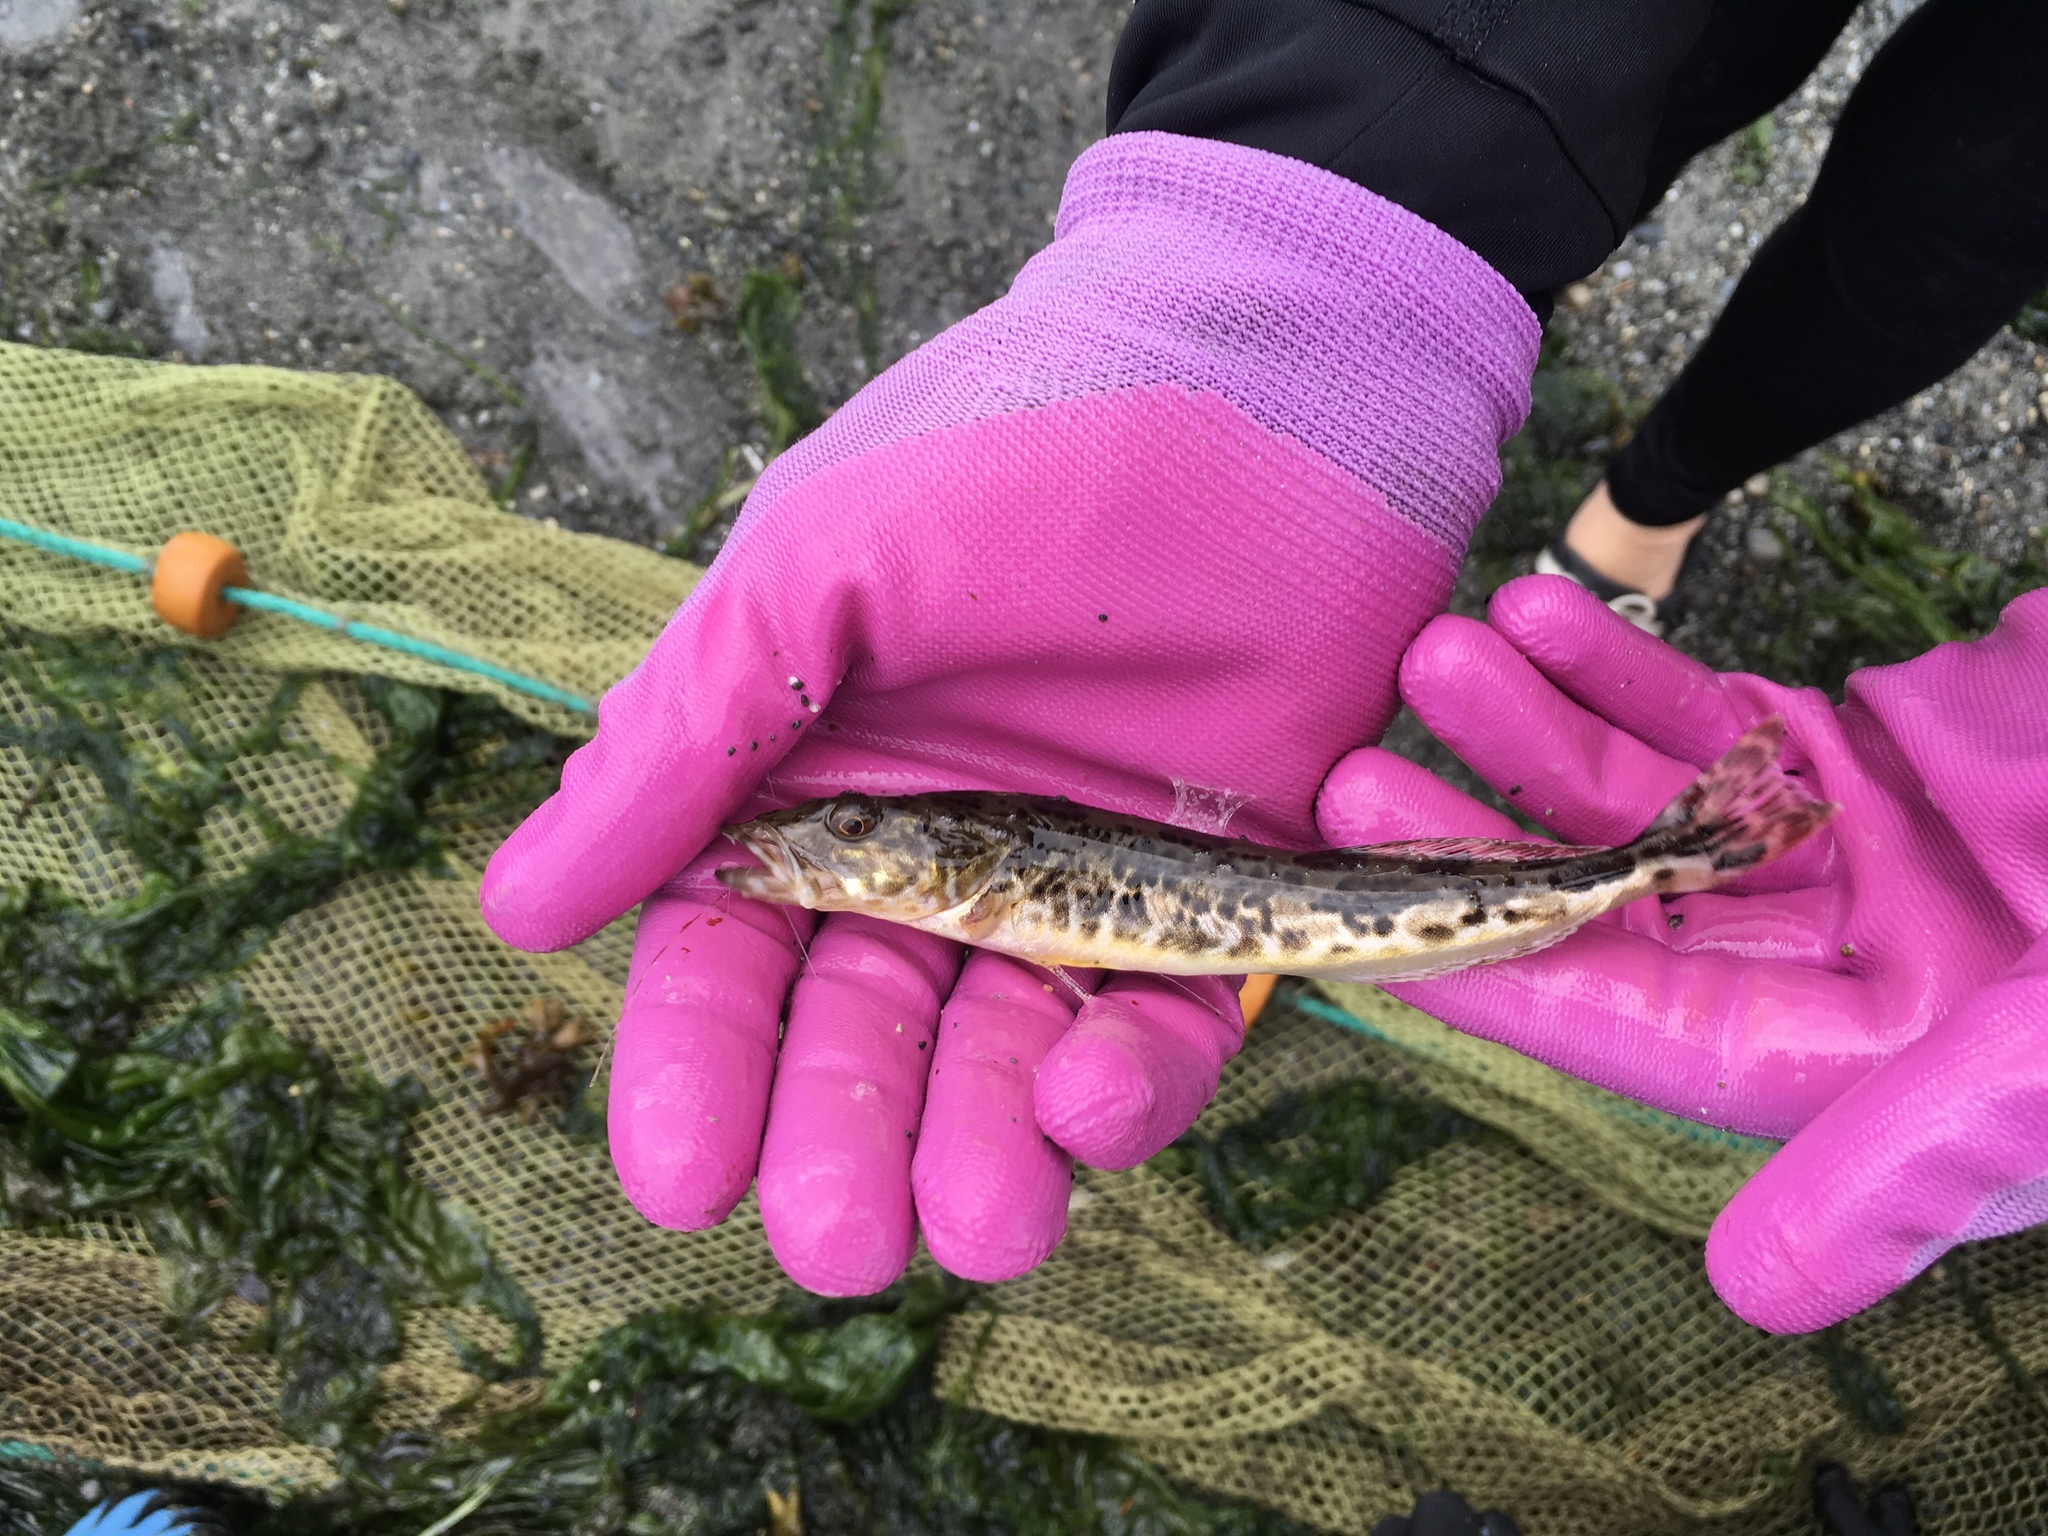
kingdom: Animalia
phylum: Chordata
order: Scorpaeniformes
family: Hexagrammidae
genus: Ophiodon
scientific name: Ophiodon elongatus
